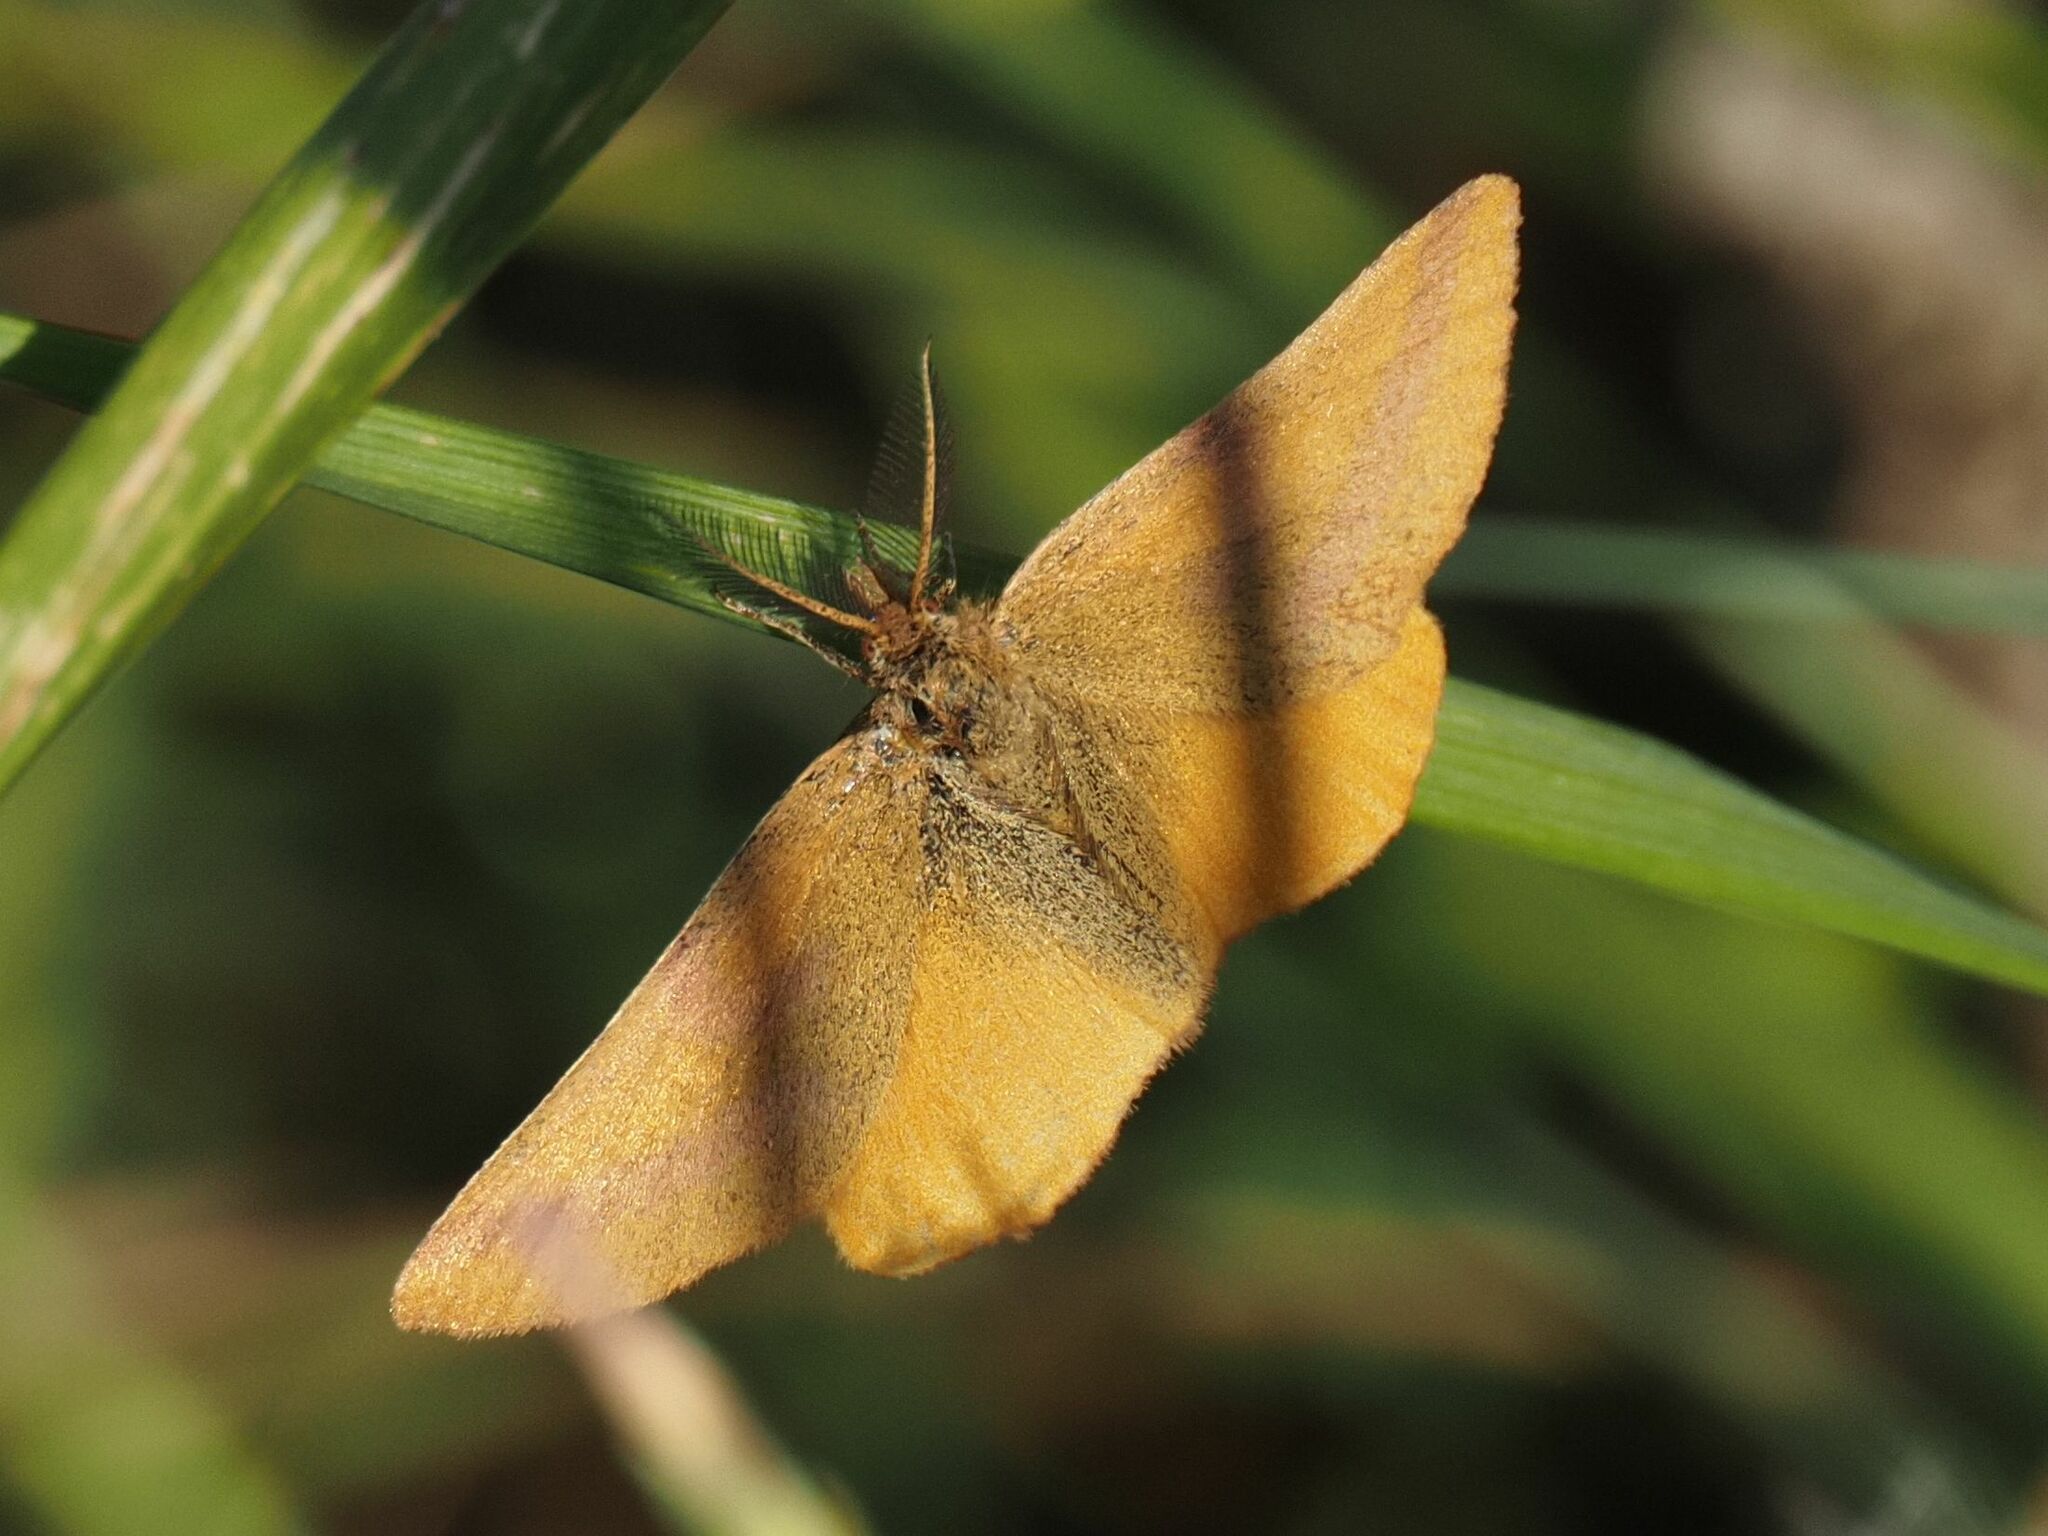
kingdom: Animalia
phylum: Arthropoda
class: Insecta
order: Lepidoptera
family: Geometridae
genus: Lythria
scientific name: Lythria purpuraria
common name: Purple-barred yellow
